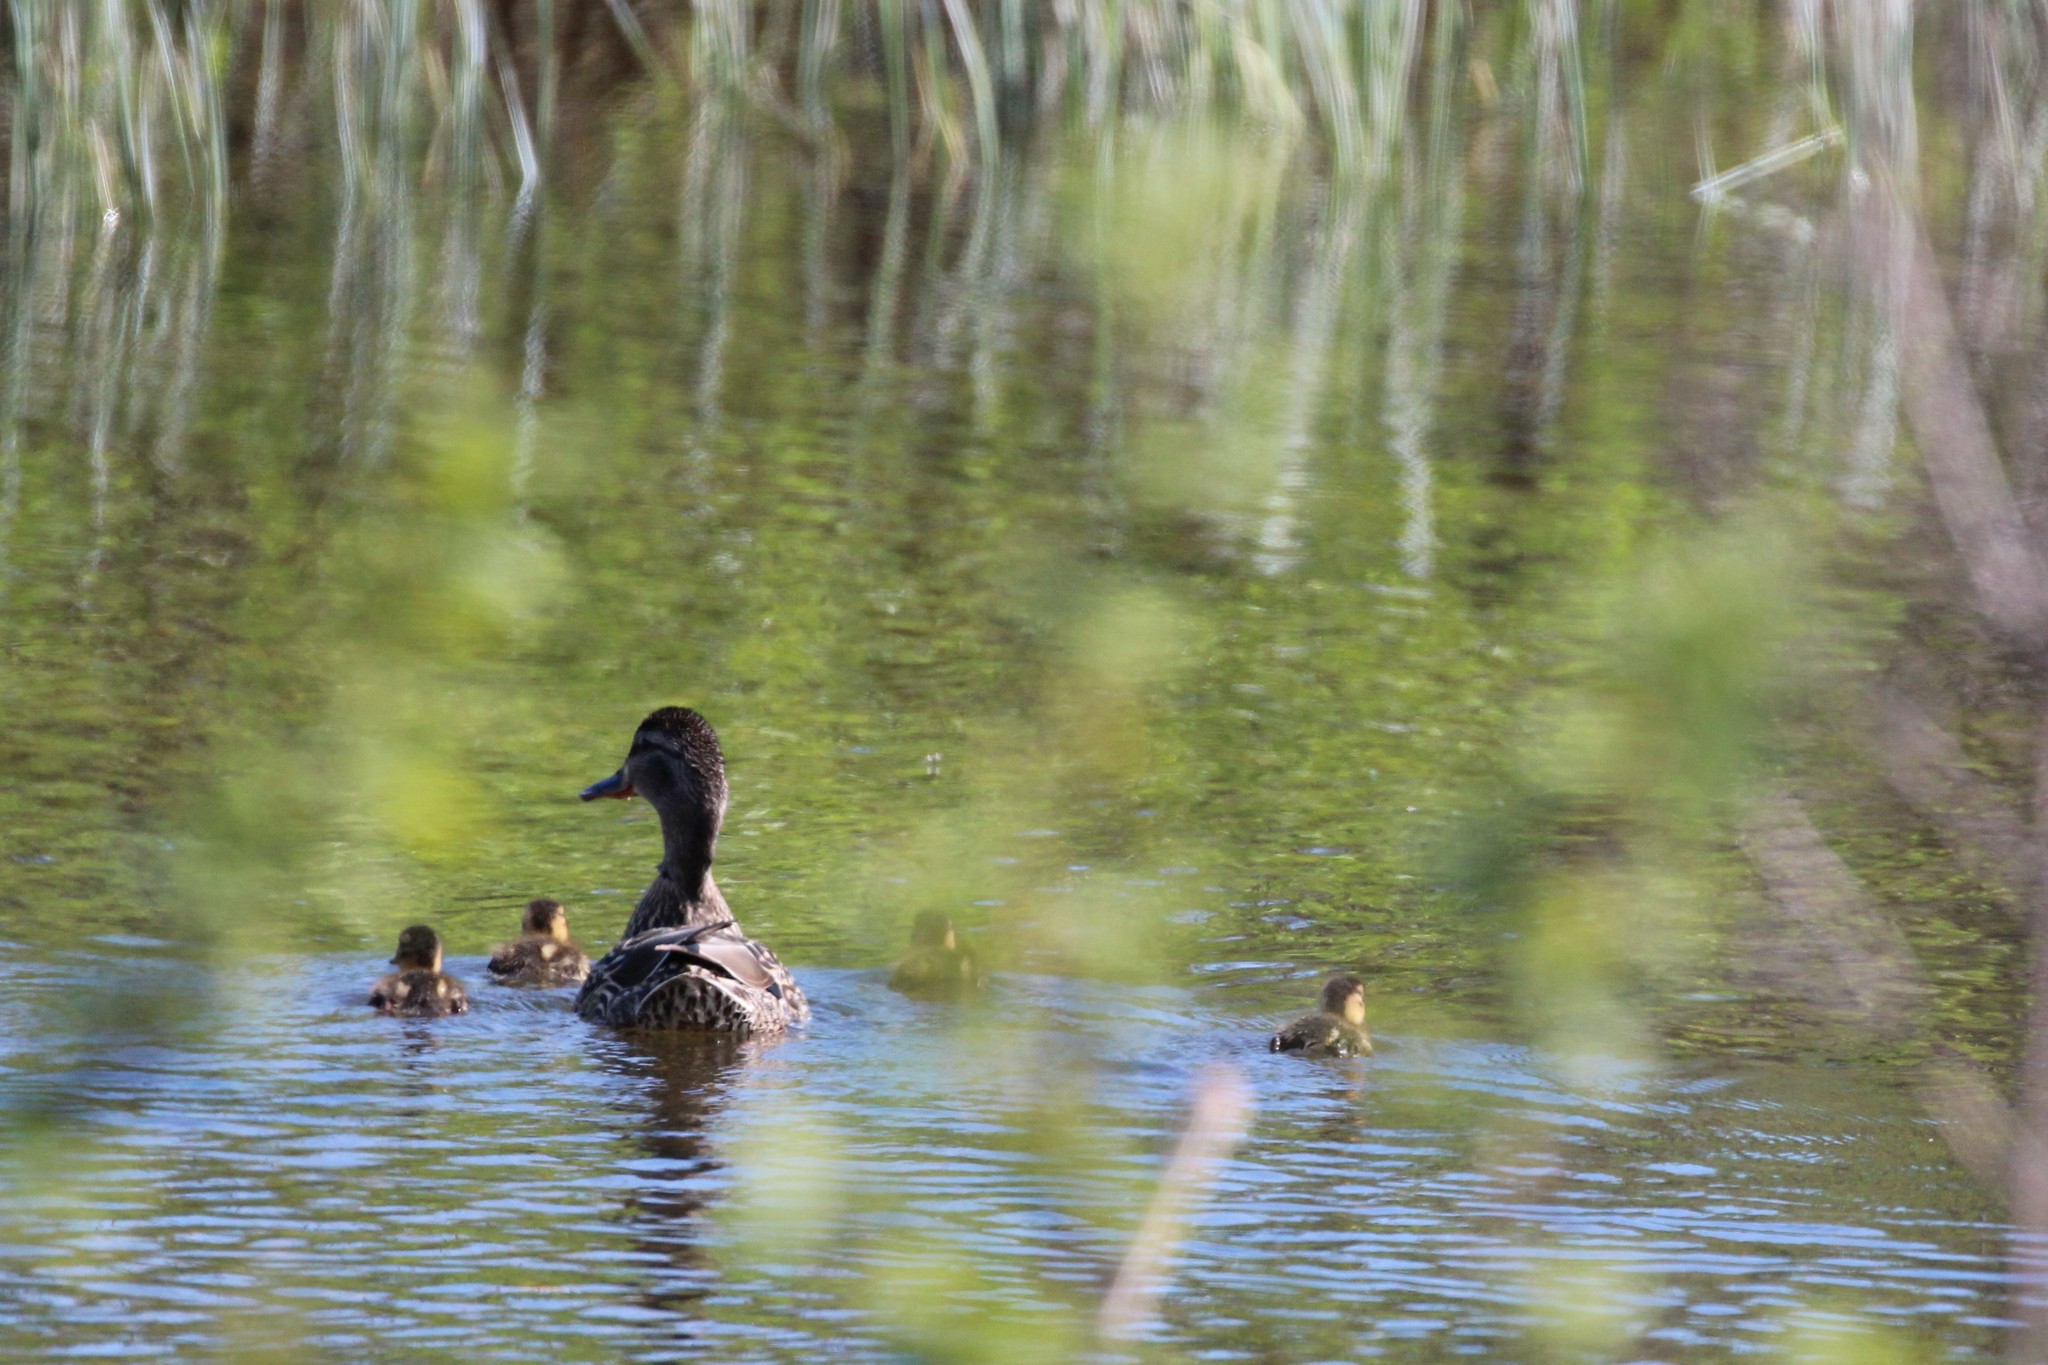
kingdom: Animalia
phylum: Chordata
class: Aves
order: Anseriformes
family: Anatidae
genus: Anas
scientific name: Anas platyrhynchos
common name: Mallard
